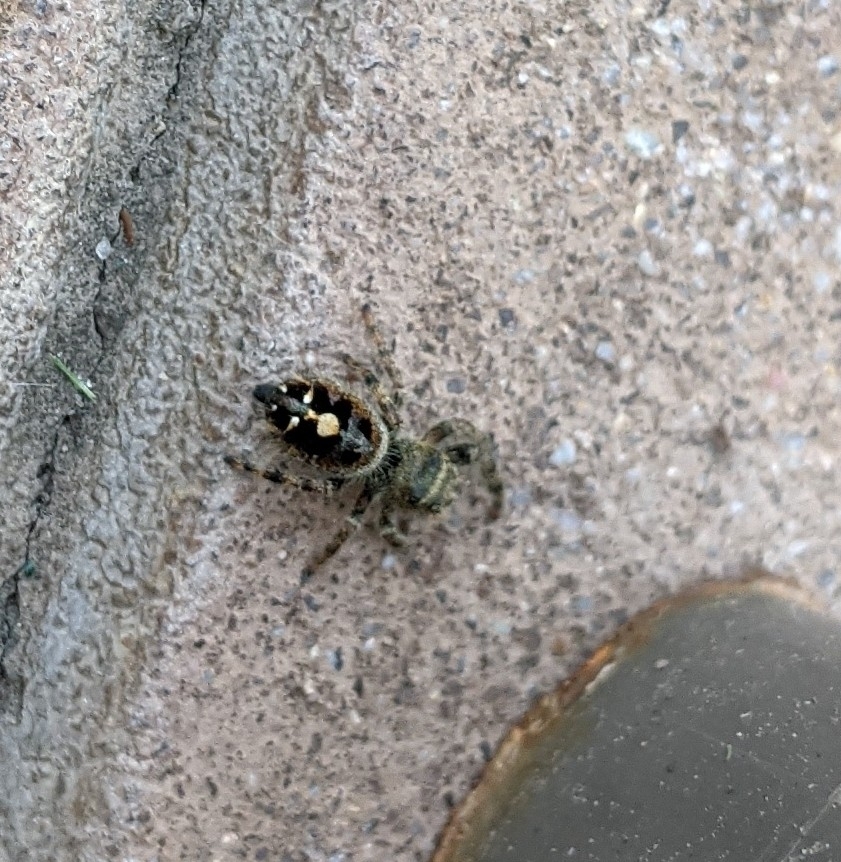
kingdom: Animalia
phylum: Arthropoda
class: Arachnida
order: Araneae
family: Salticidae
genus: Phidippus
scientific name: Phidippus audax
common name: Bold jumper
